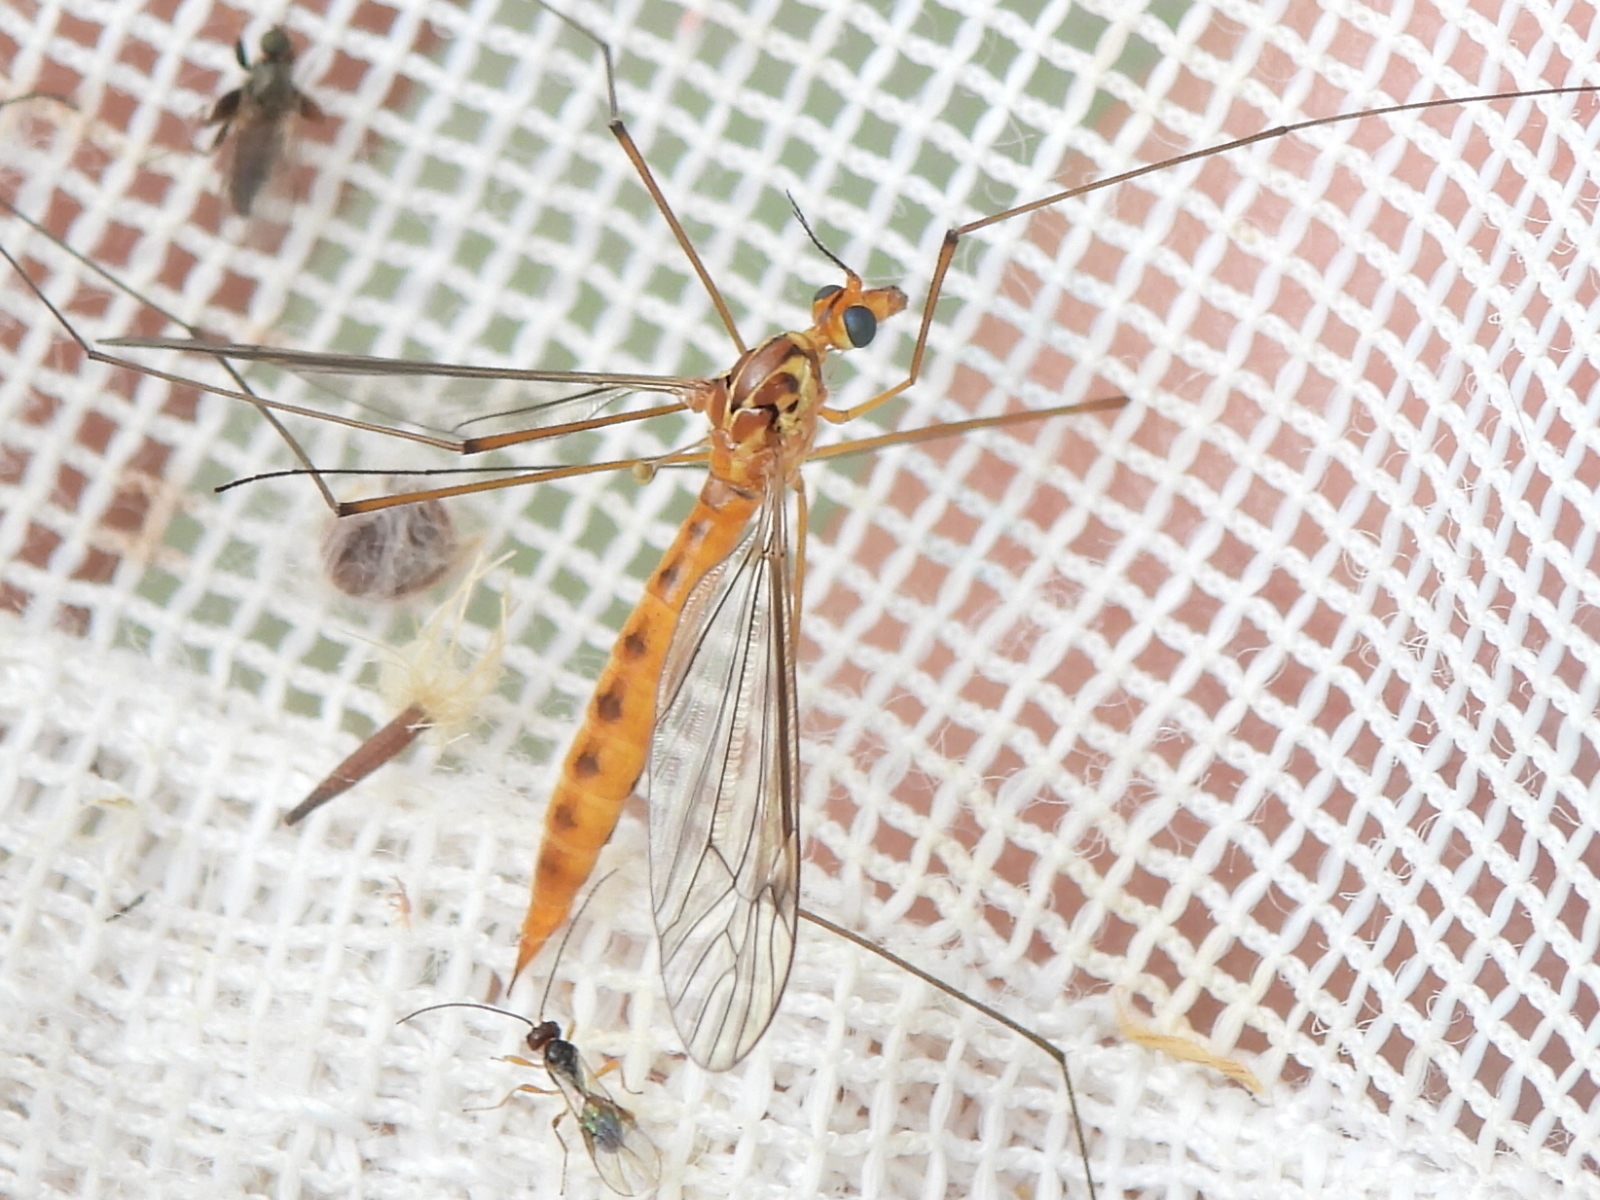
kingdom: Animalia
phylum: Arthropoda
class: Insecta
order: Diptera
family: Tipulidae
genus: Nephrotoma
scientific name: Nephrotoma ferruginea
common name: Ferruginous tiger crane fly
